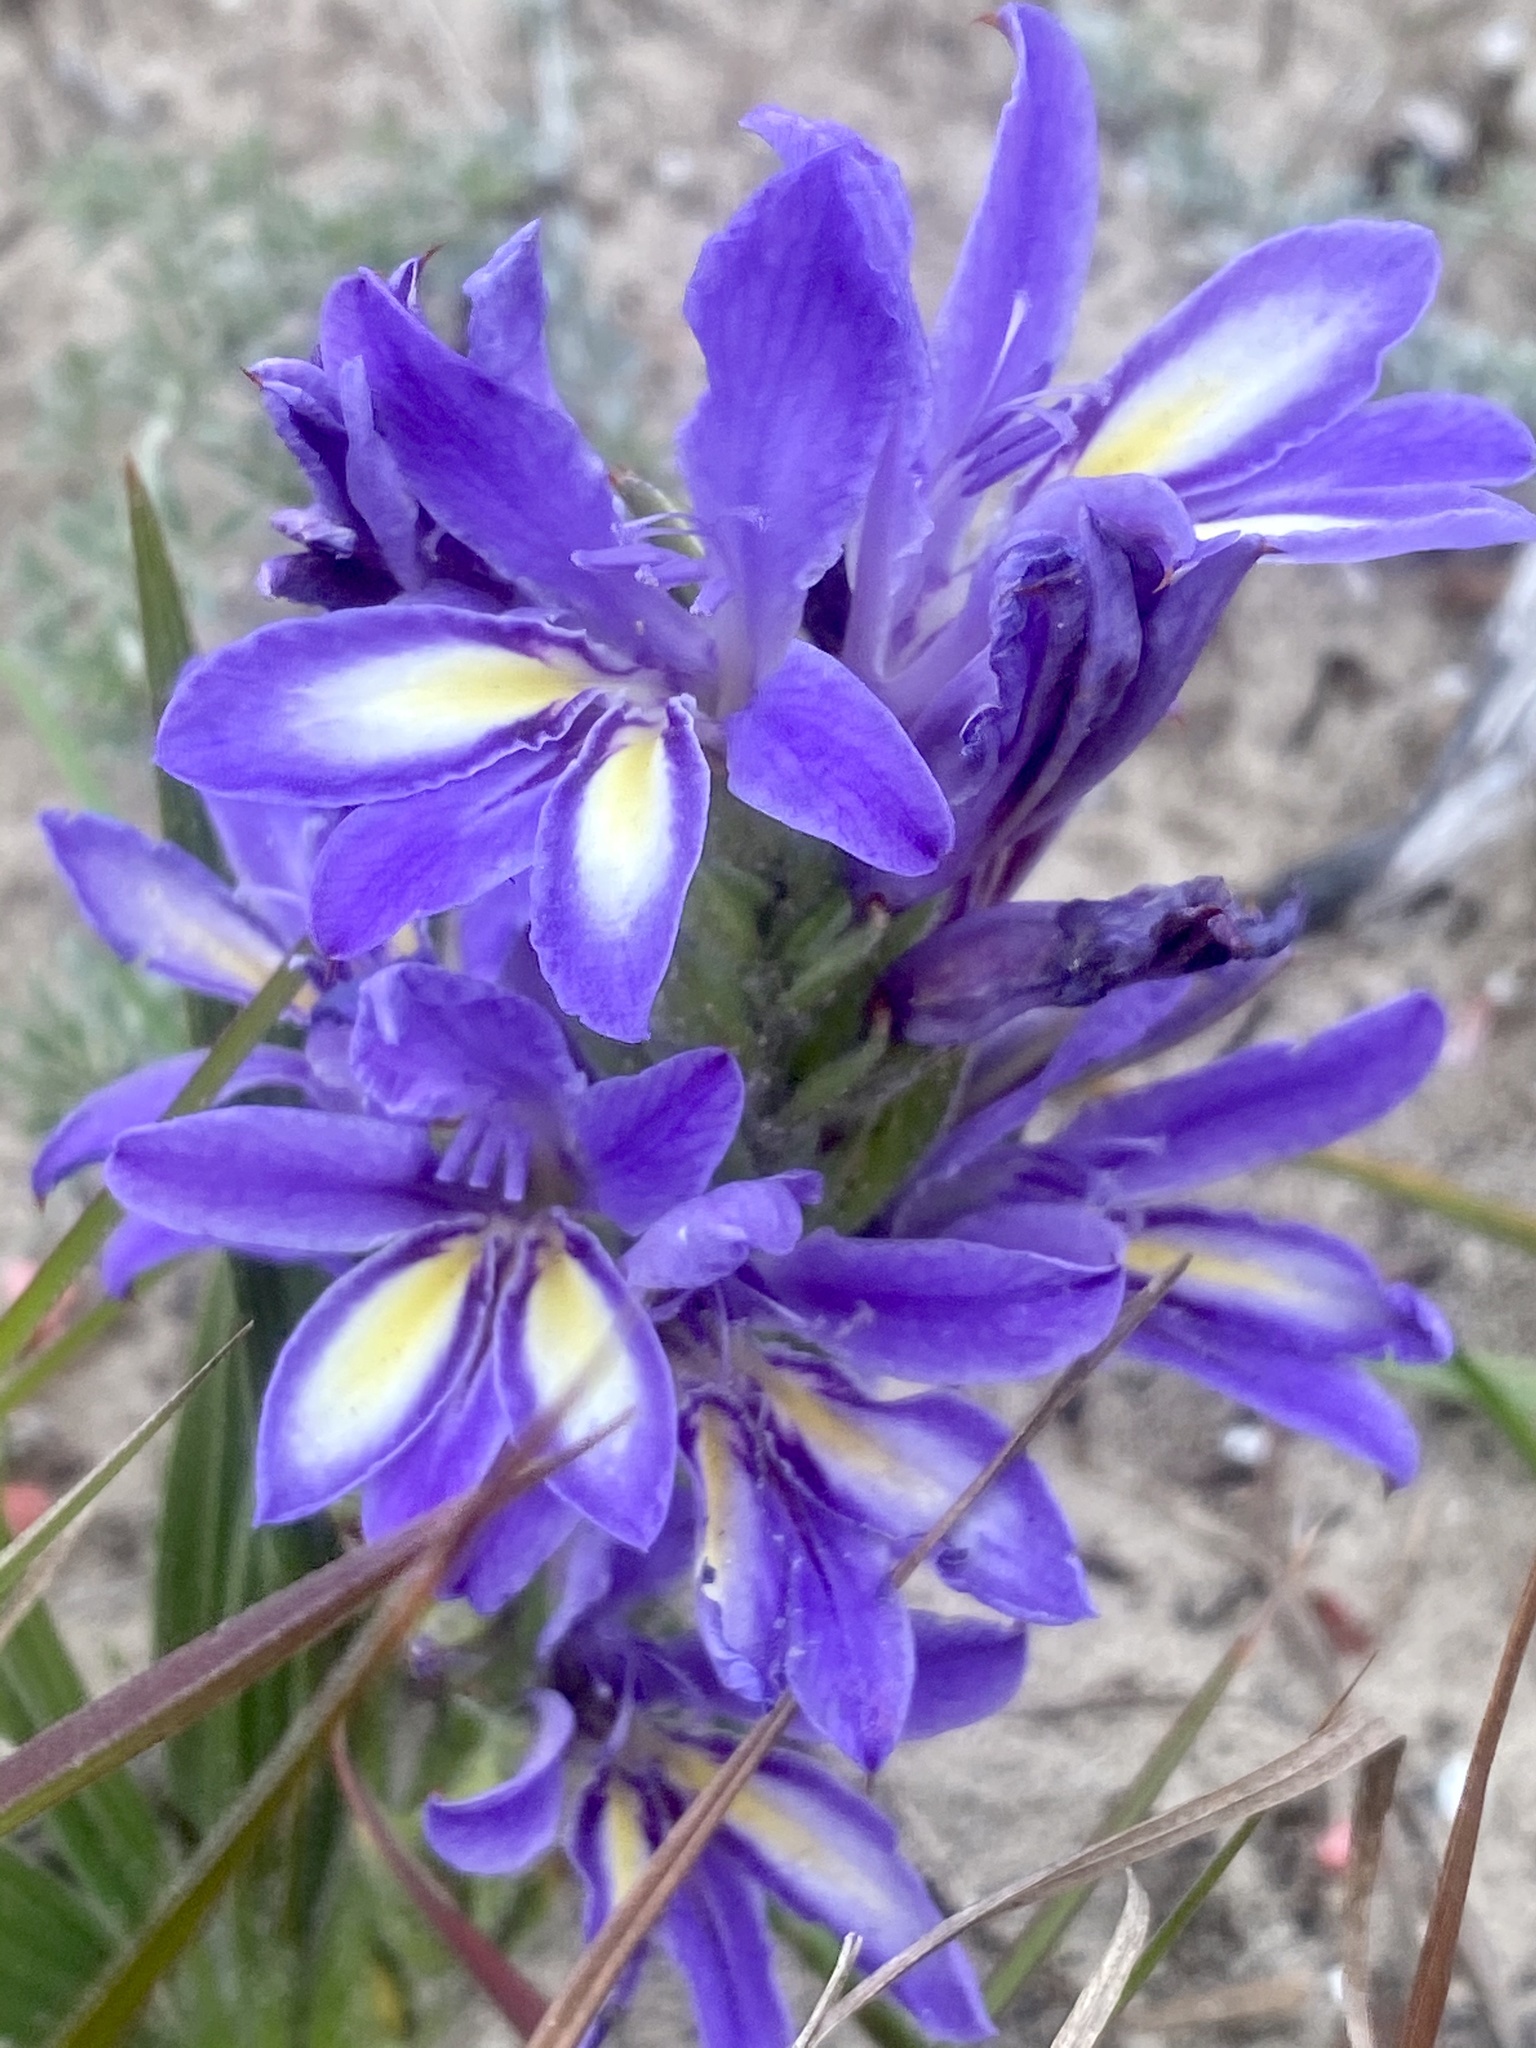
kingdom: Plantae
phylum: Tracheophyta
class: Liliopsida
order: Asparagales
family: Iridaceae
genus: Babiana
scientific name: Babiana ambigua
